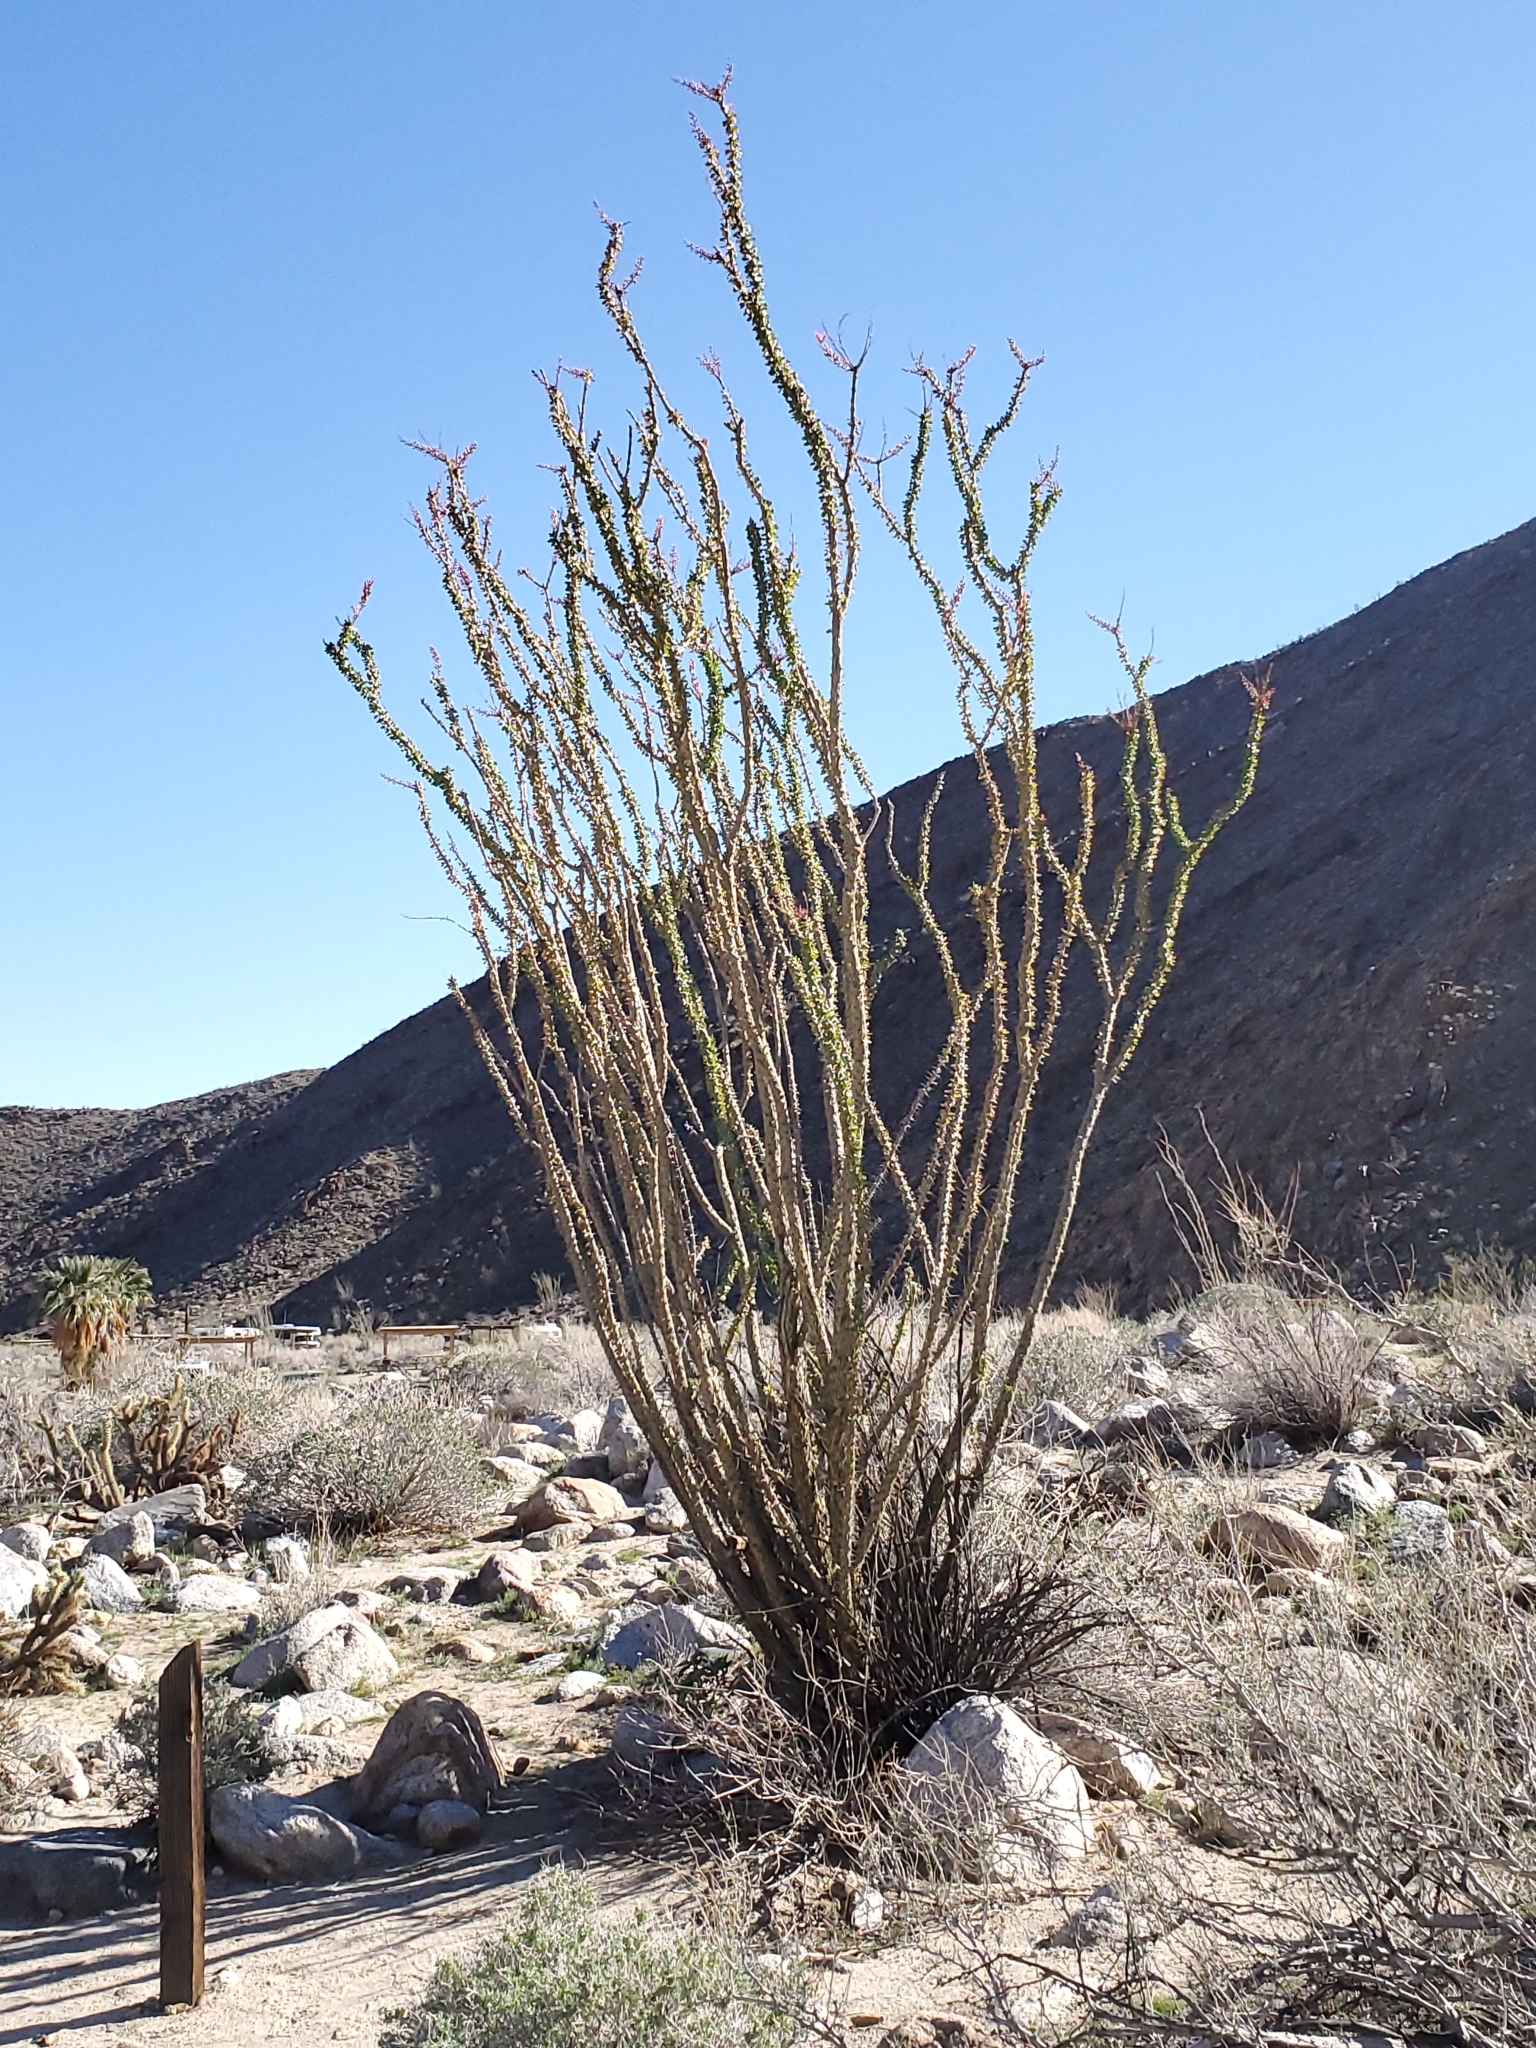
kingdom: Plantae
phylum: Tracheophyta
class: Magnoliopsida
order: Ericales
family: Fouquieriaceae
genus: Fouquieria
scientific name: Fouquieria splendens
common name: Vine-cactus
